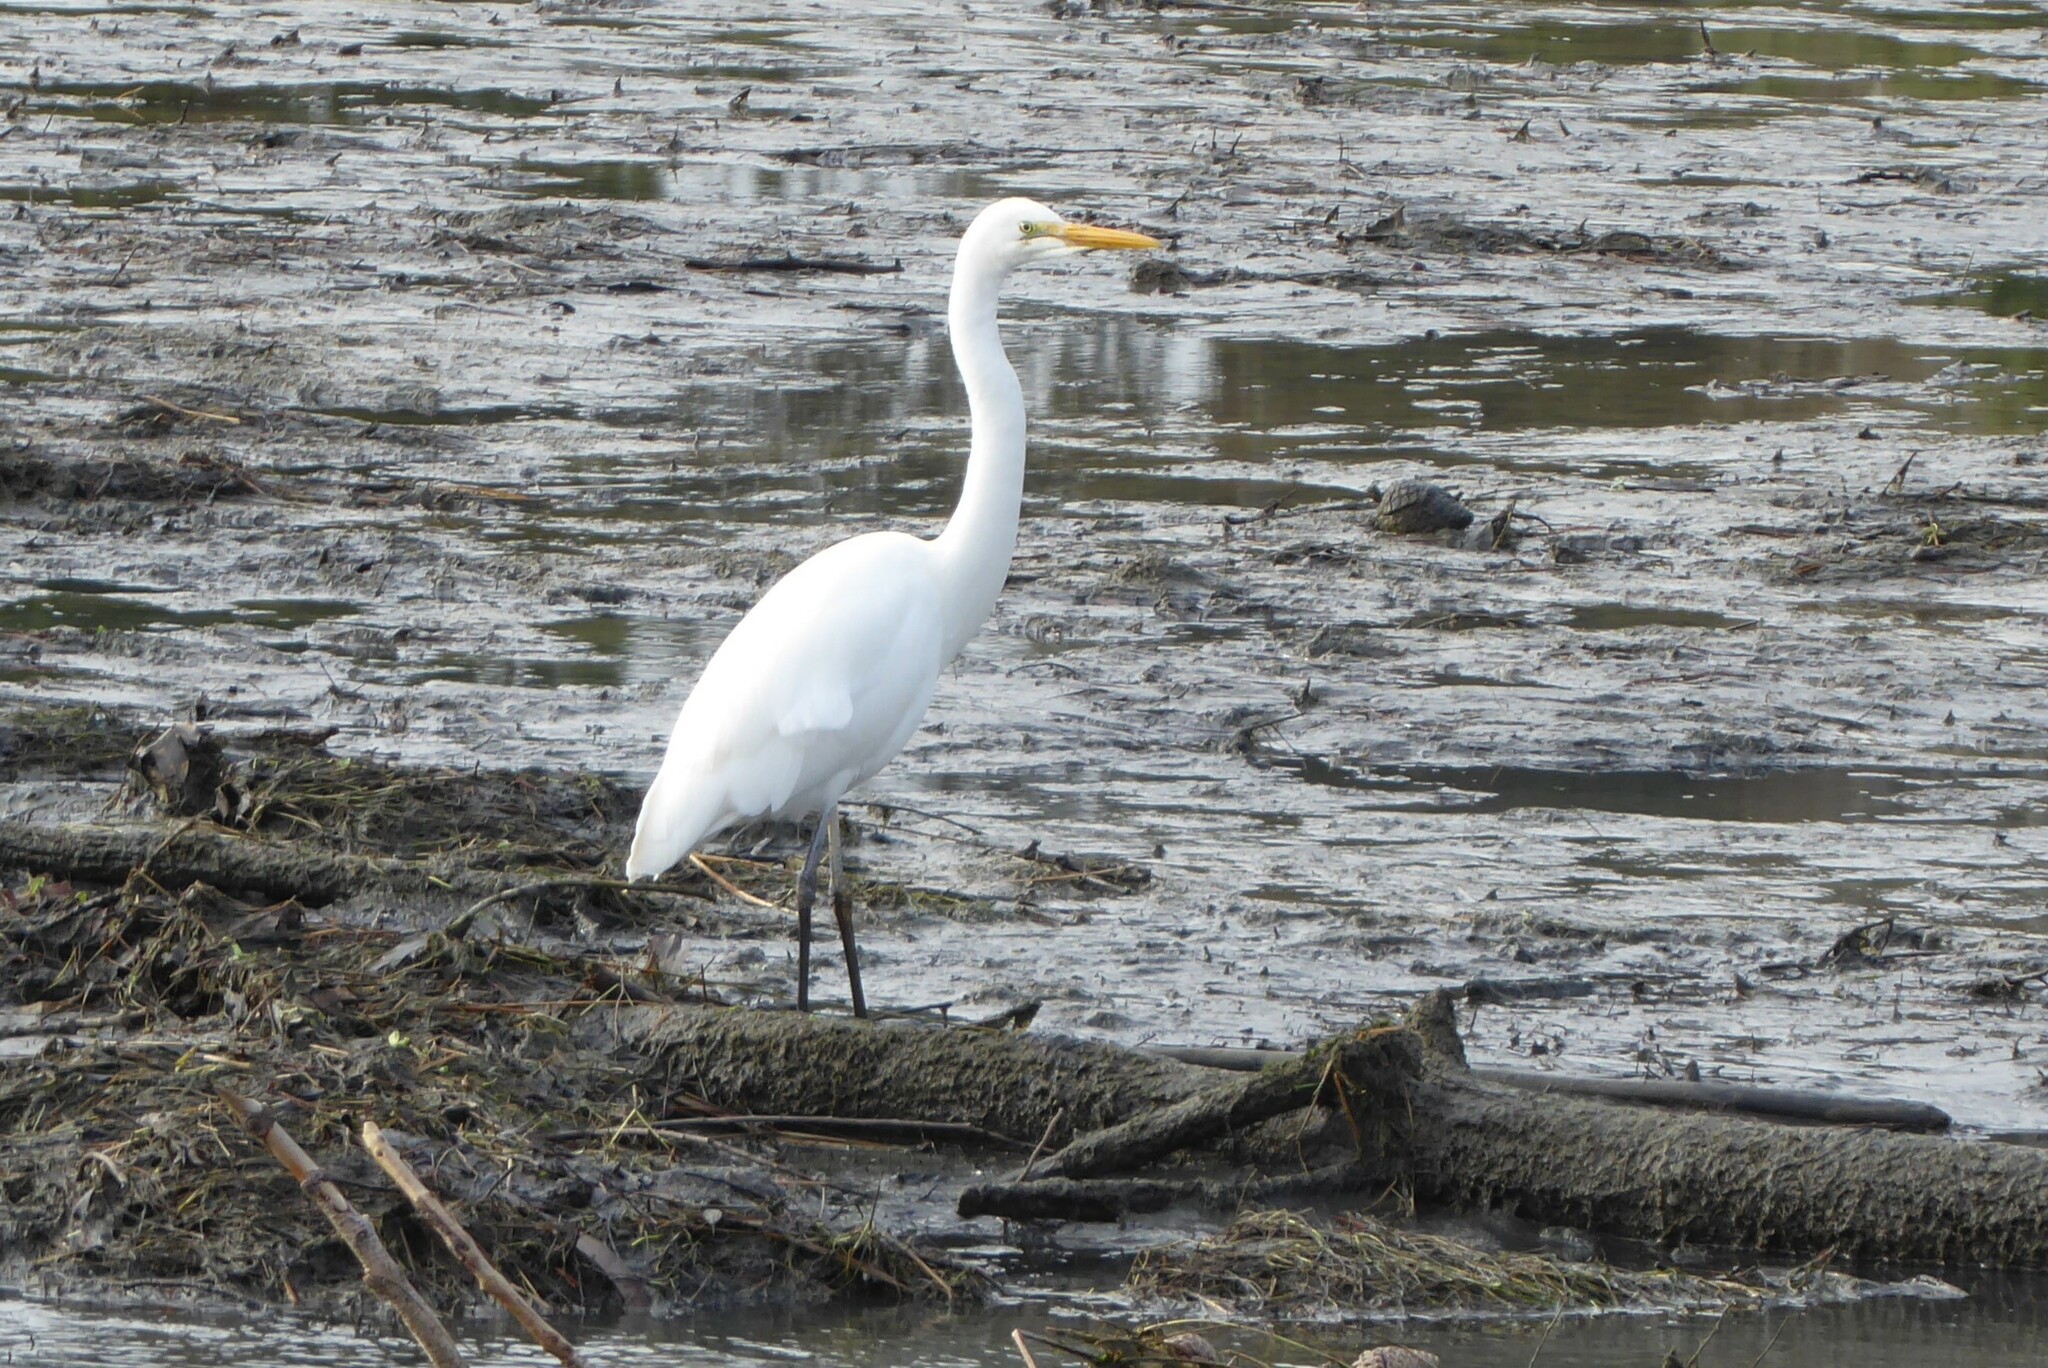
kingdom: Animalia
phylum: Chordata
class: Aves
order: Pelecaniformes
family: Ardeidae
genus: Ardea
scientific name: Ardea modesta
